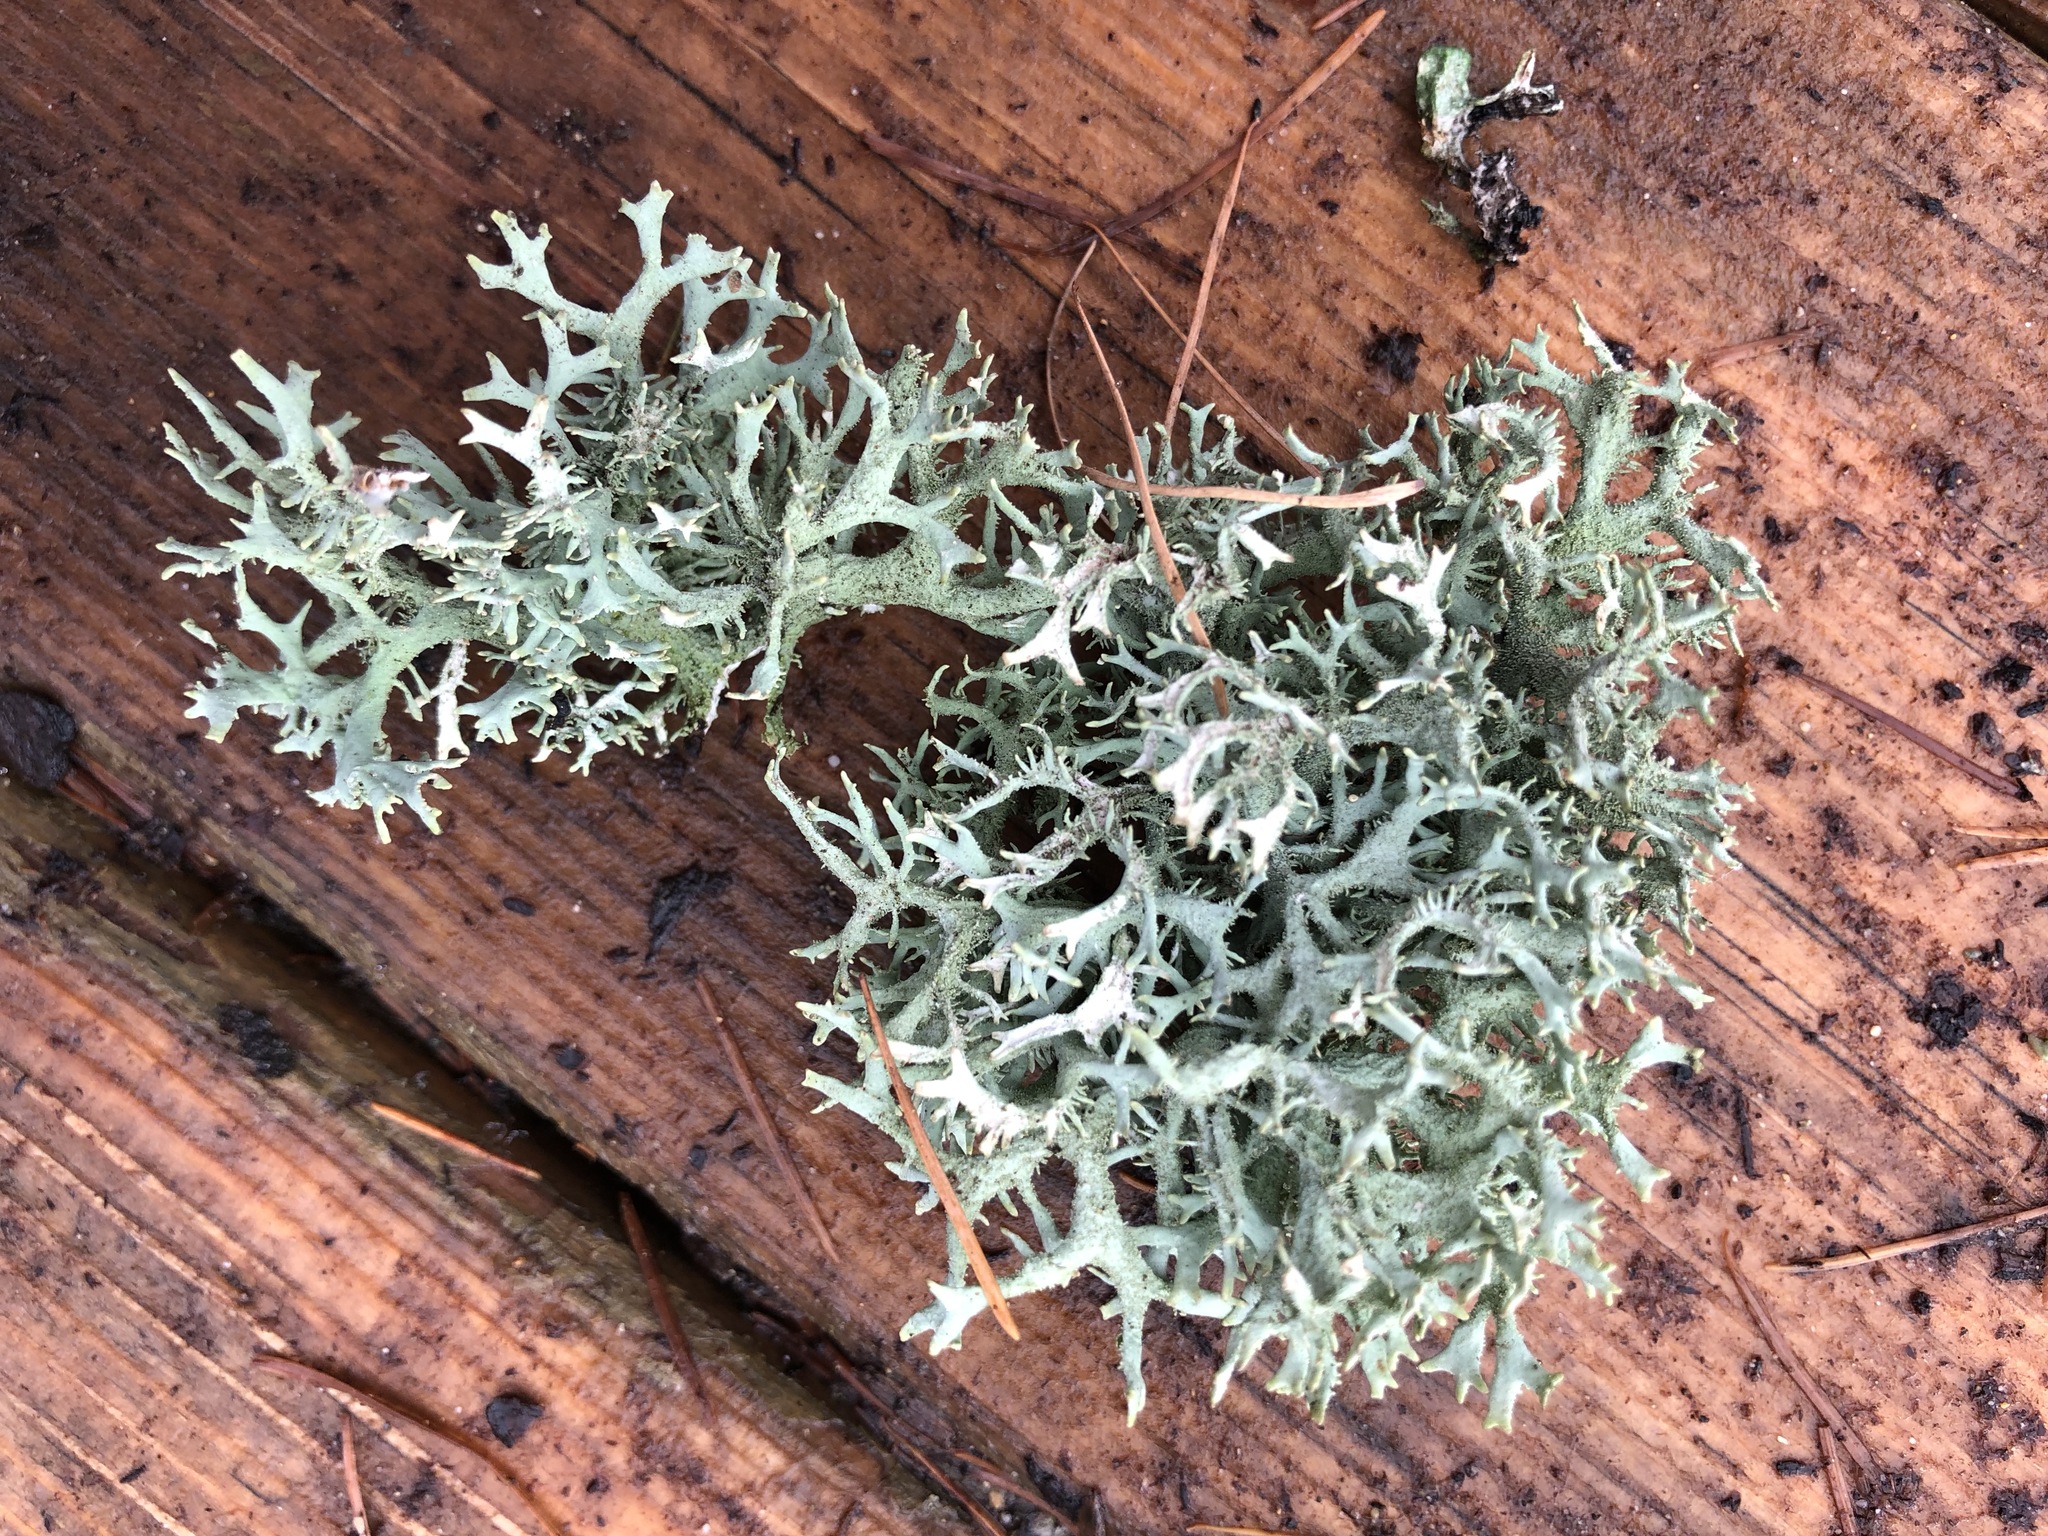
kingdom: Fungi
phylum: Ascomycota
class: Lecanoromycetes
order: Lecanorales
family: Parmeliaceae
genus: Pseudevernia
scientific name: Pseudevernia furfuracea
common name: Tree moss
